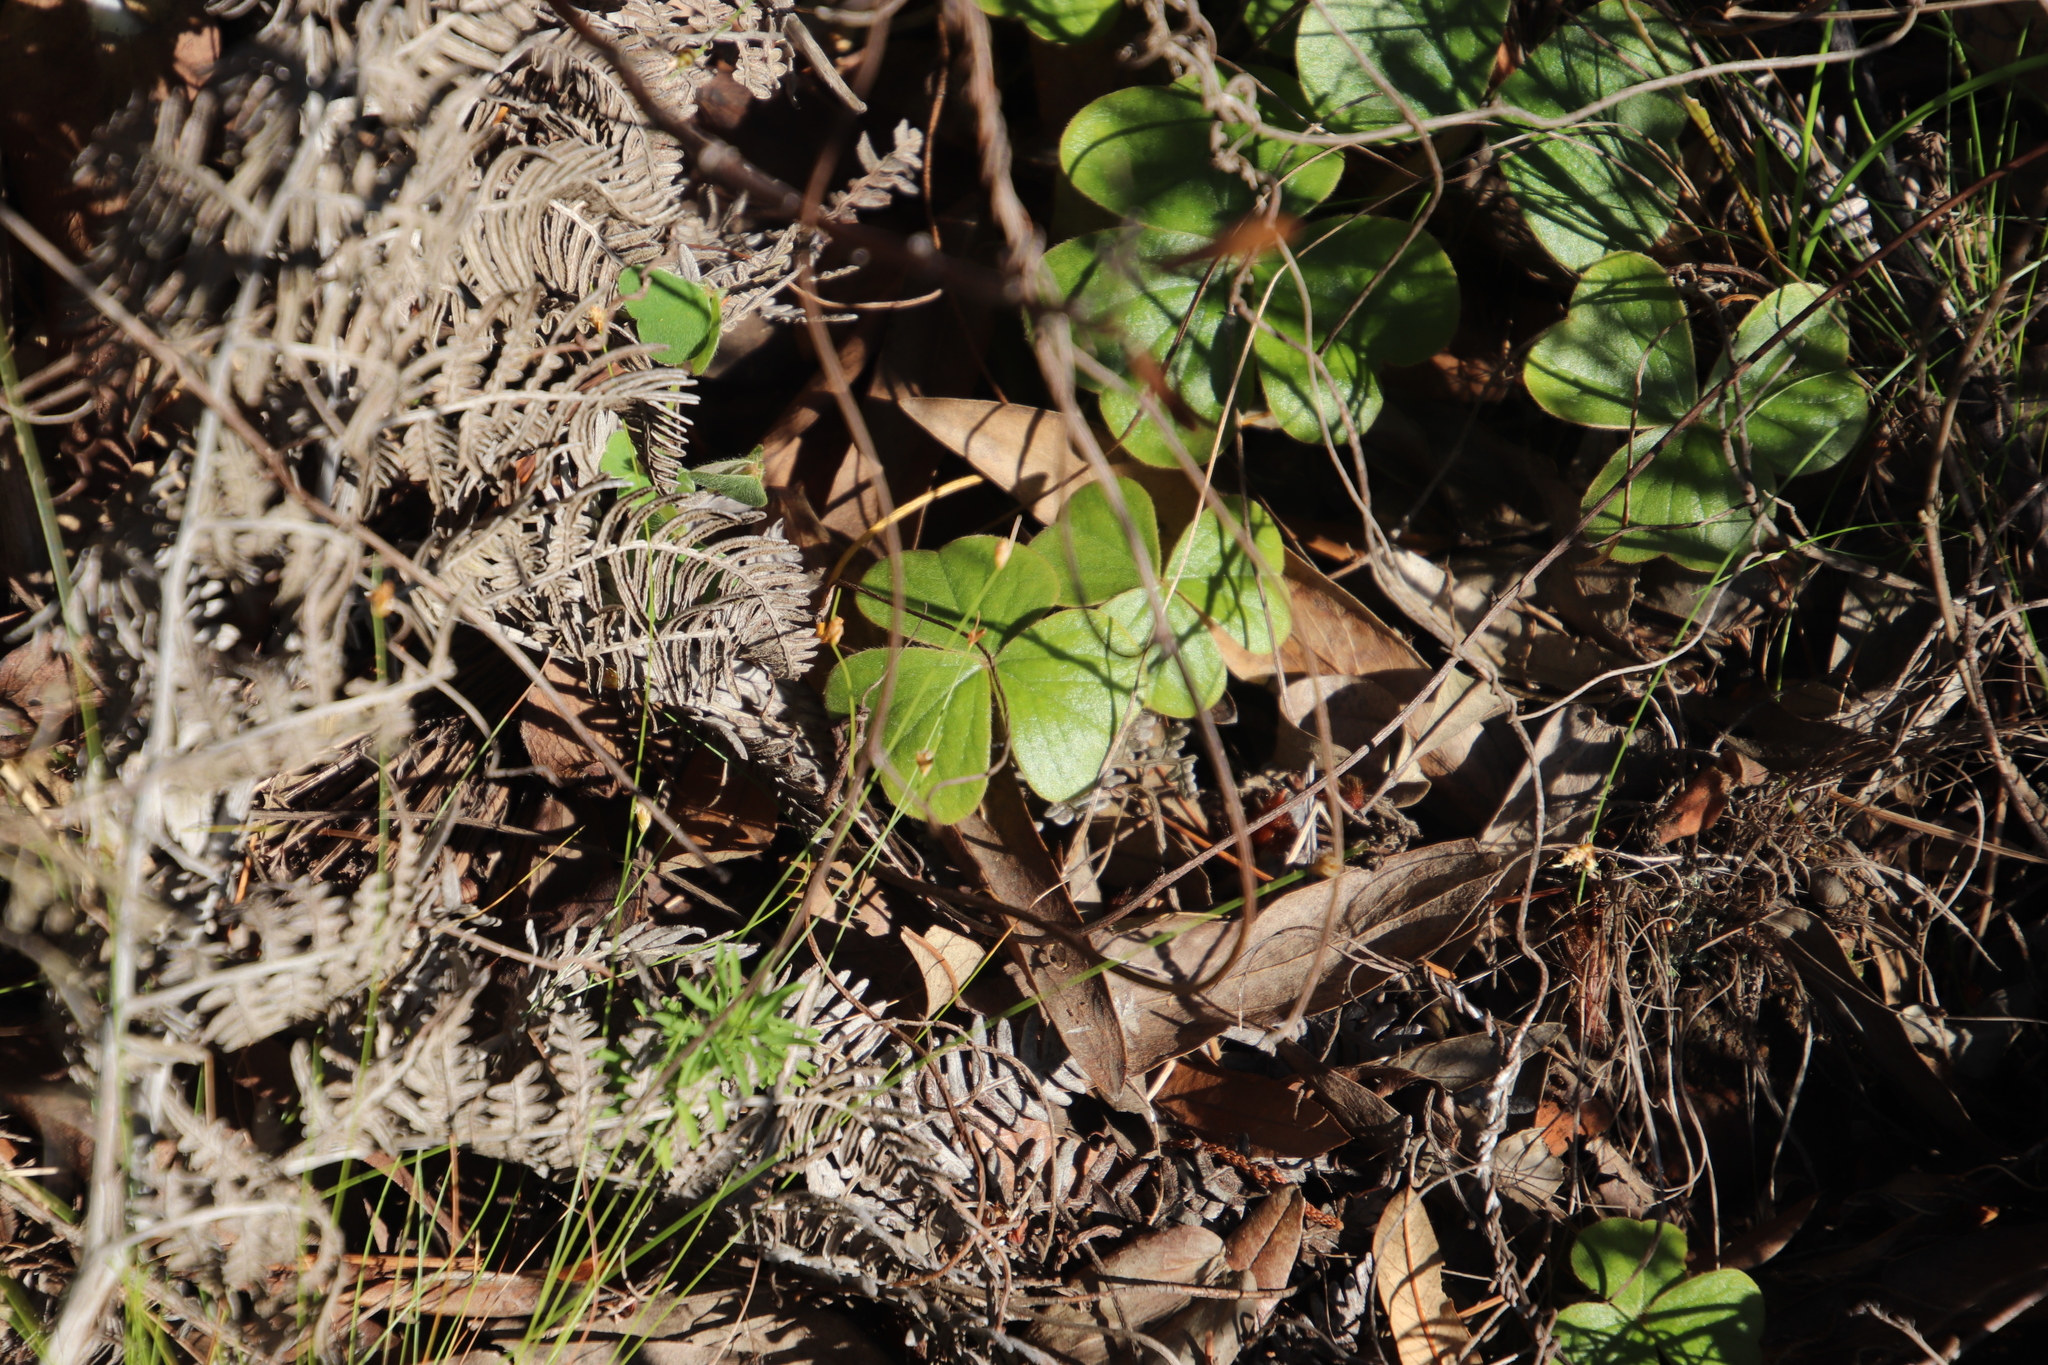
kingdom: Plantae
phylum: Tracheophyta
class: Magnoliopsida
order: Oxalidales
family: Oxalidaceae
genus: Oxalis
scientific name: Oxalis truncatula
